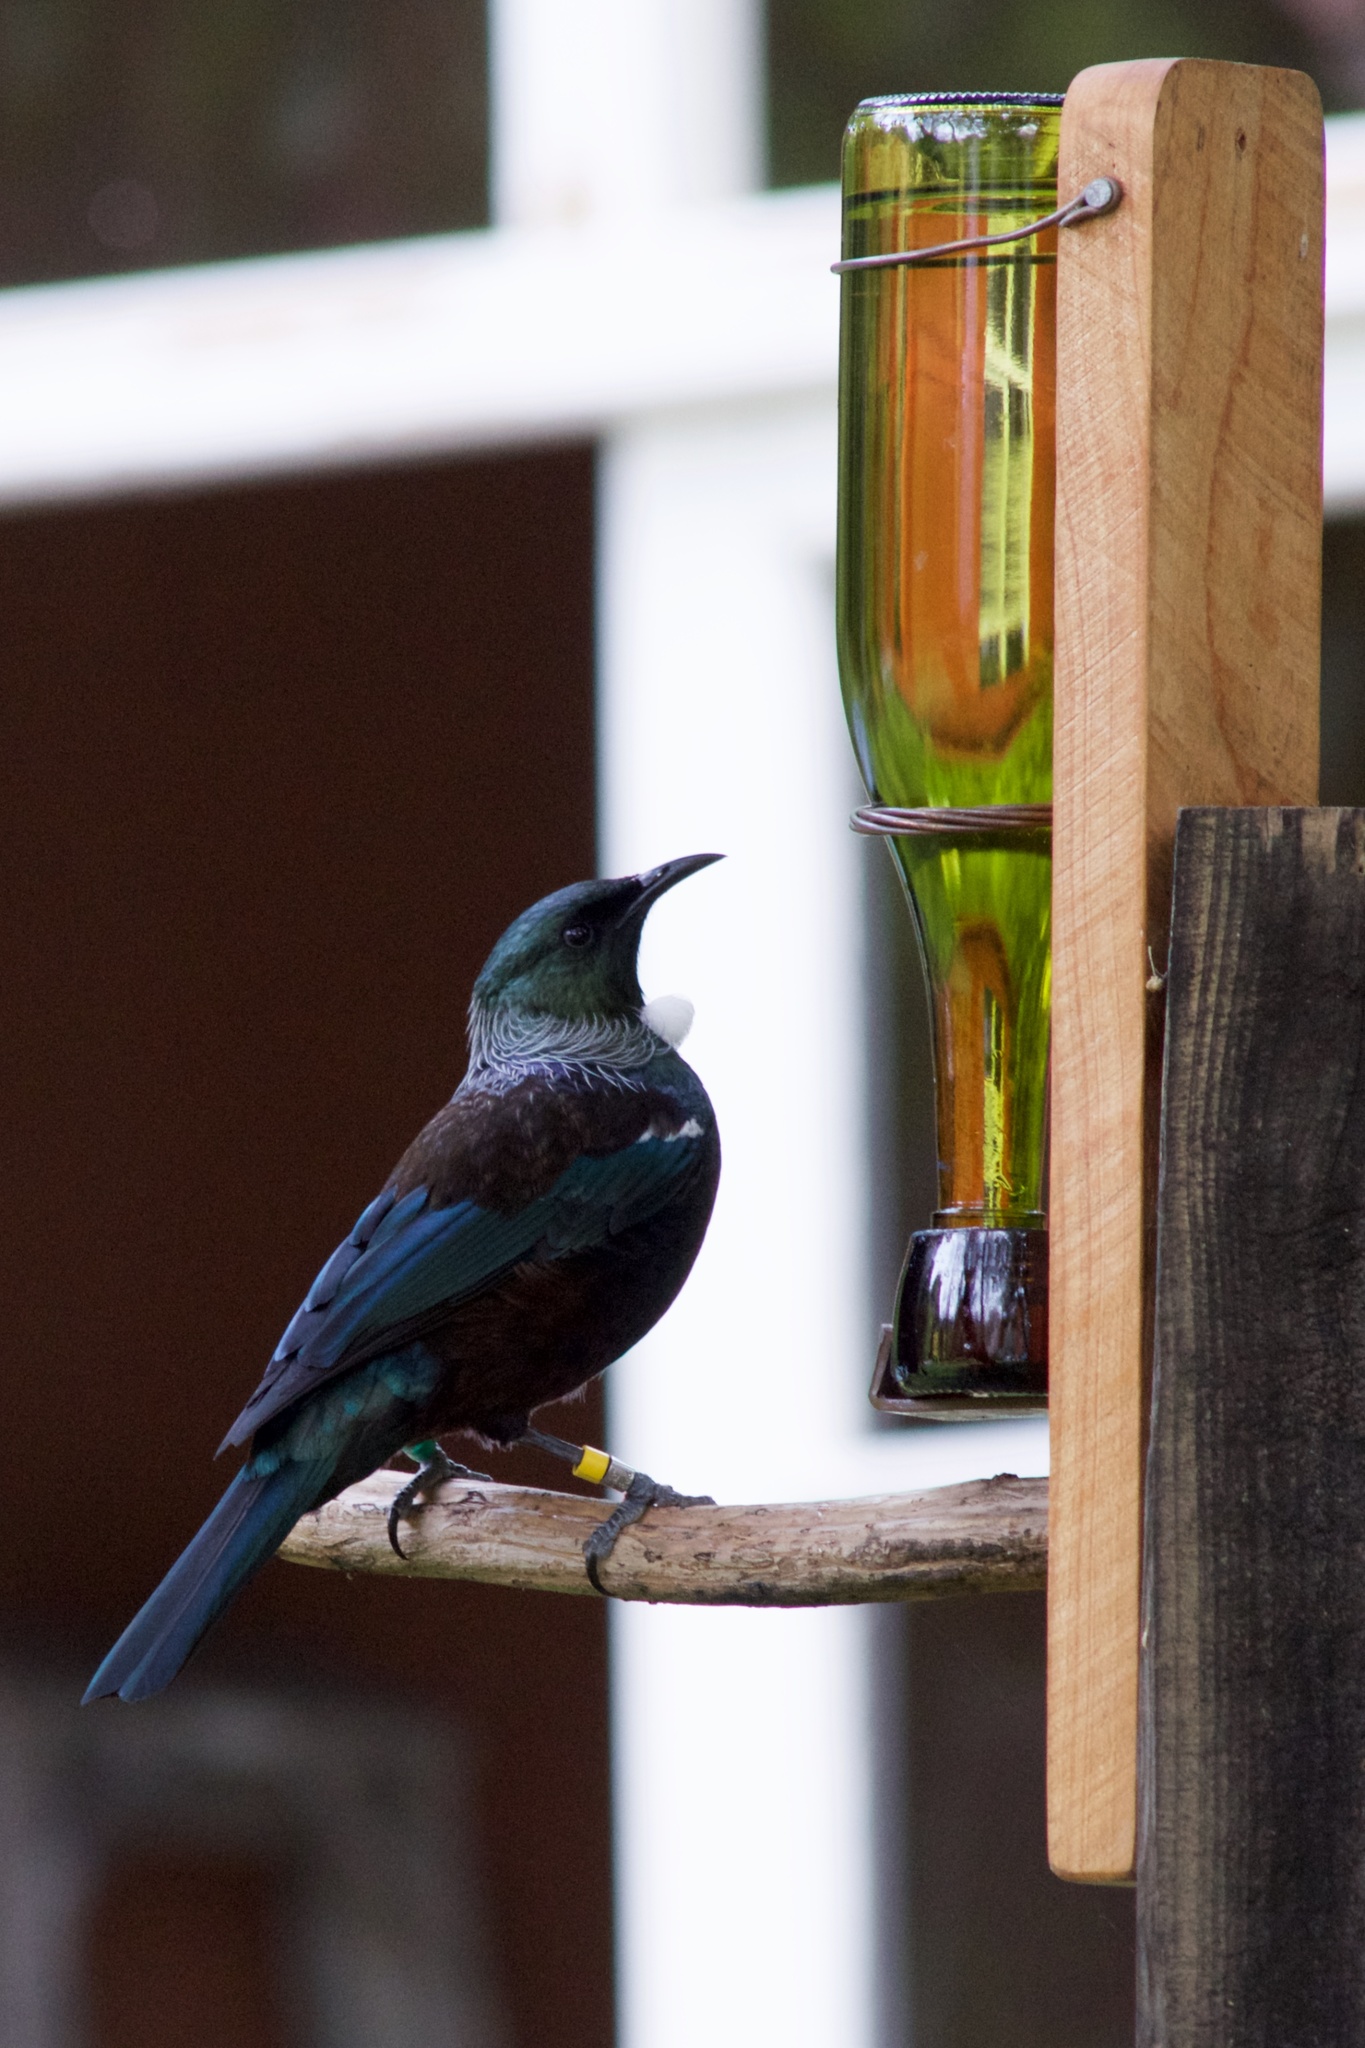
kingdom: Animalia
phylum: Chordata
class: Aves
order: Passeriformes
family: Meliphagidae
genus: Prosthemadera
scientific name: Prosthemadera novaeseelandiae
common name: Tui
